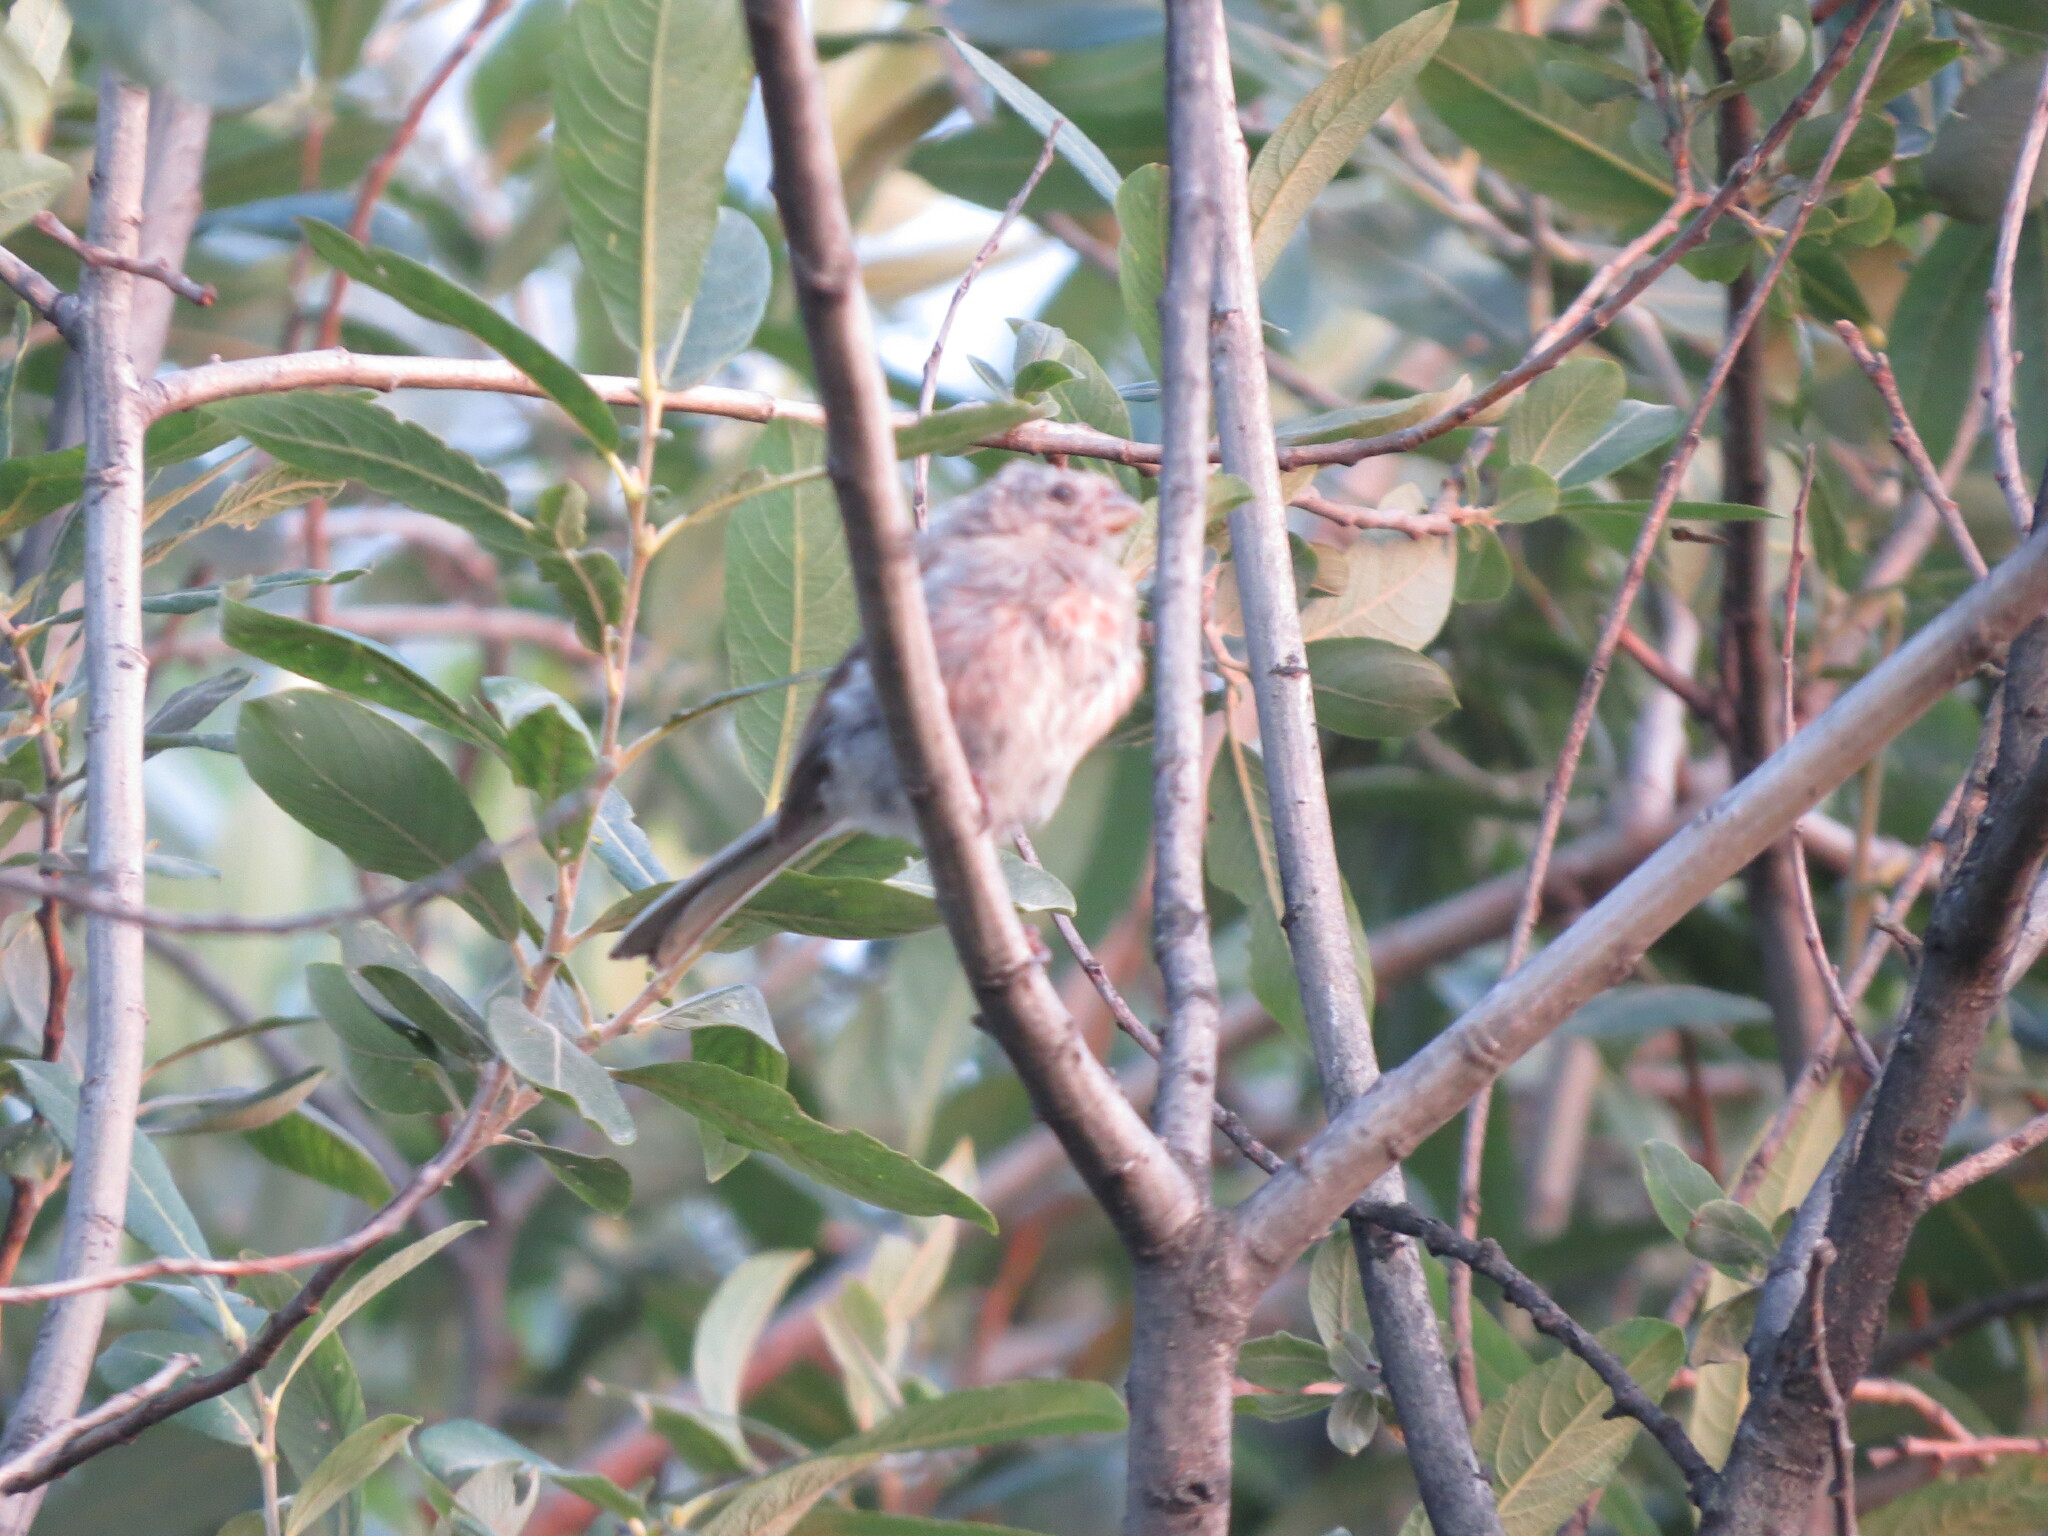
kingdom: Animalia
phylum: Chordata
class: Aves
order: Passeriformes
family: Fringillidae
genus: Carpodacus
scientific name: Carpodacus sibiricus
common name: Long-tailed rosefinch
